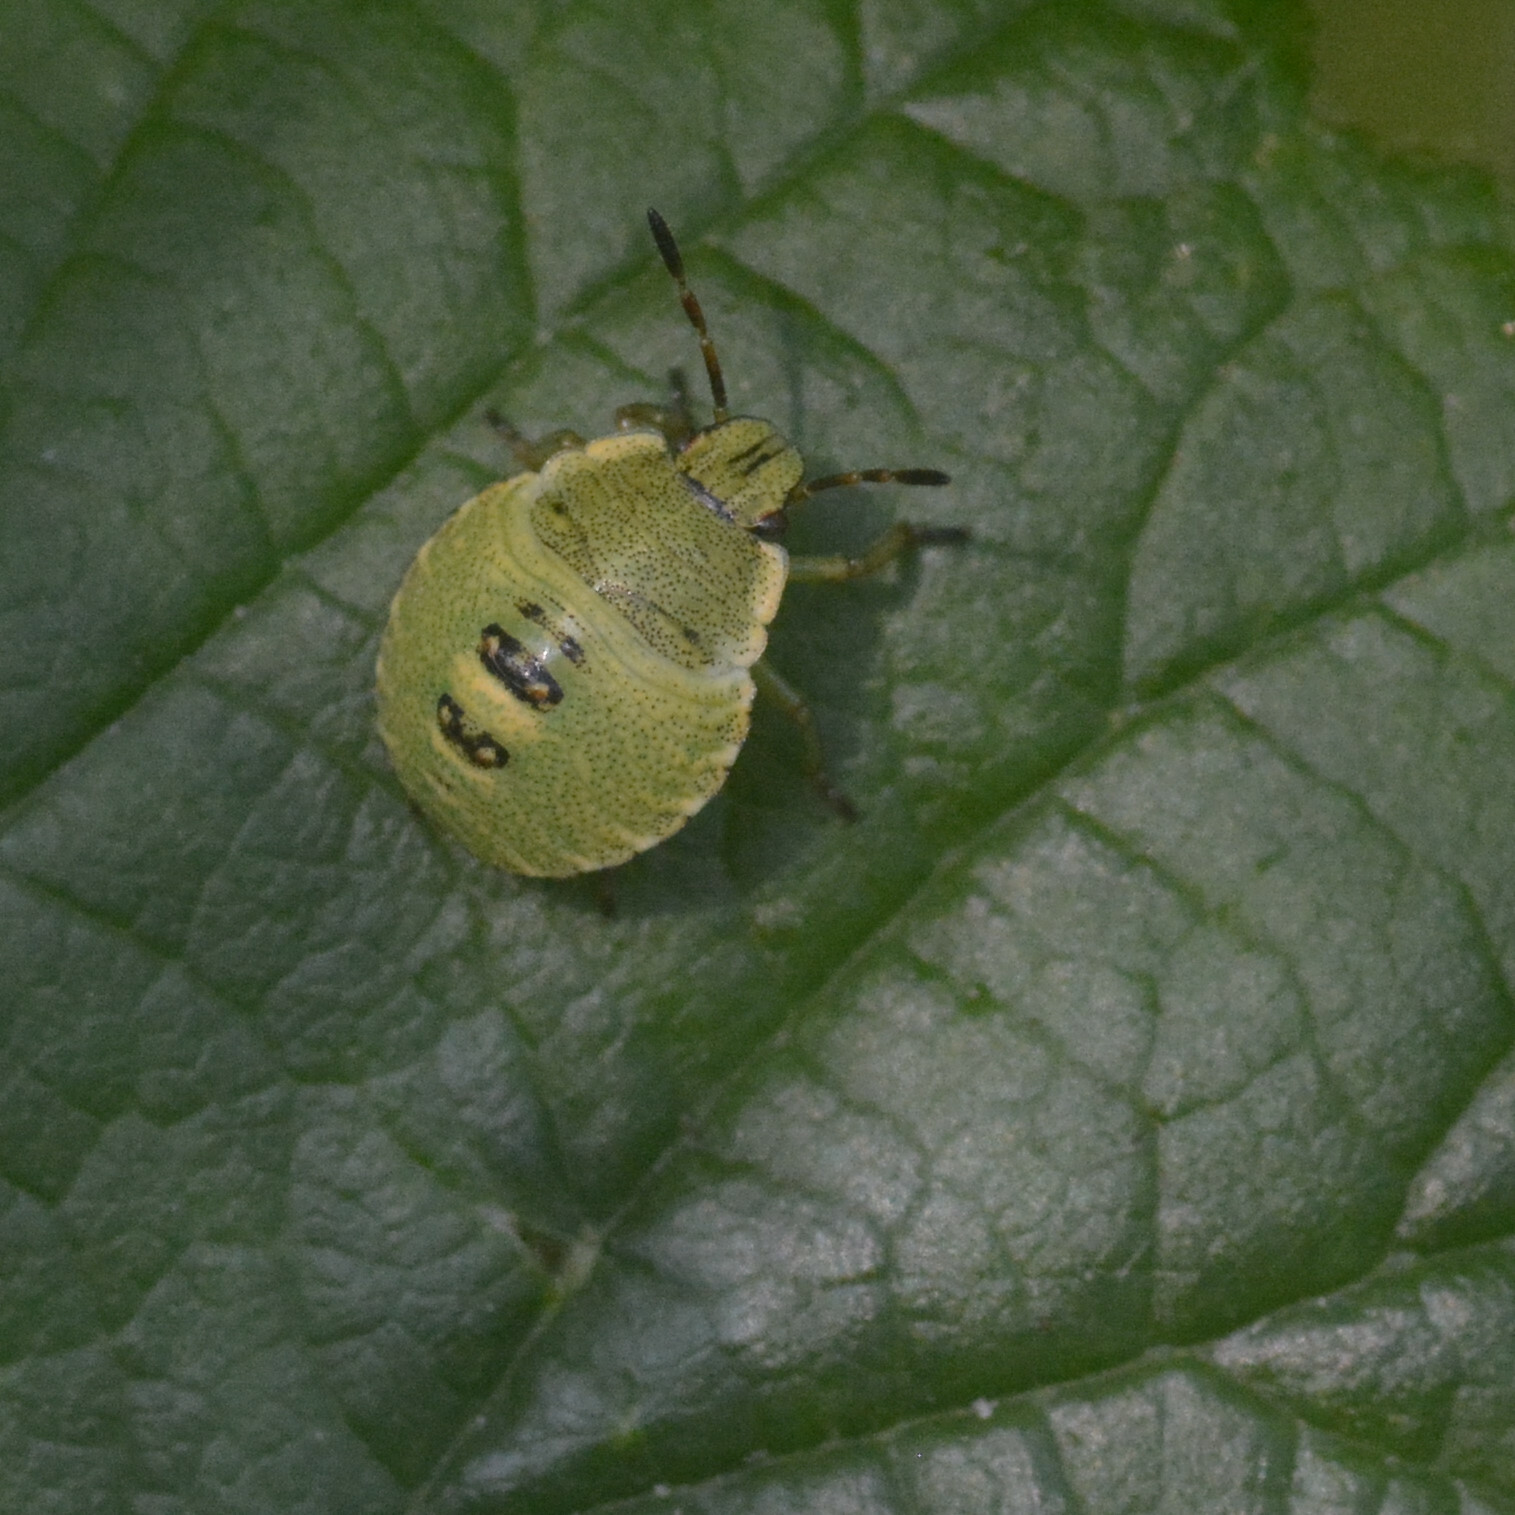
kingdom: Animalia
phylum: Arthropoda
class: Insecta
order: Hemiptera
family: Pentatomidae
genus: Palomena
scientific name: Palomena prasina
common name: Green shieldbug
